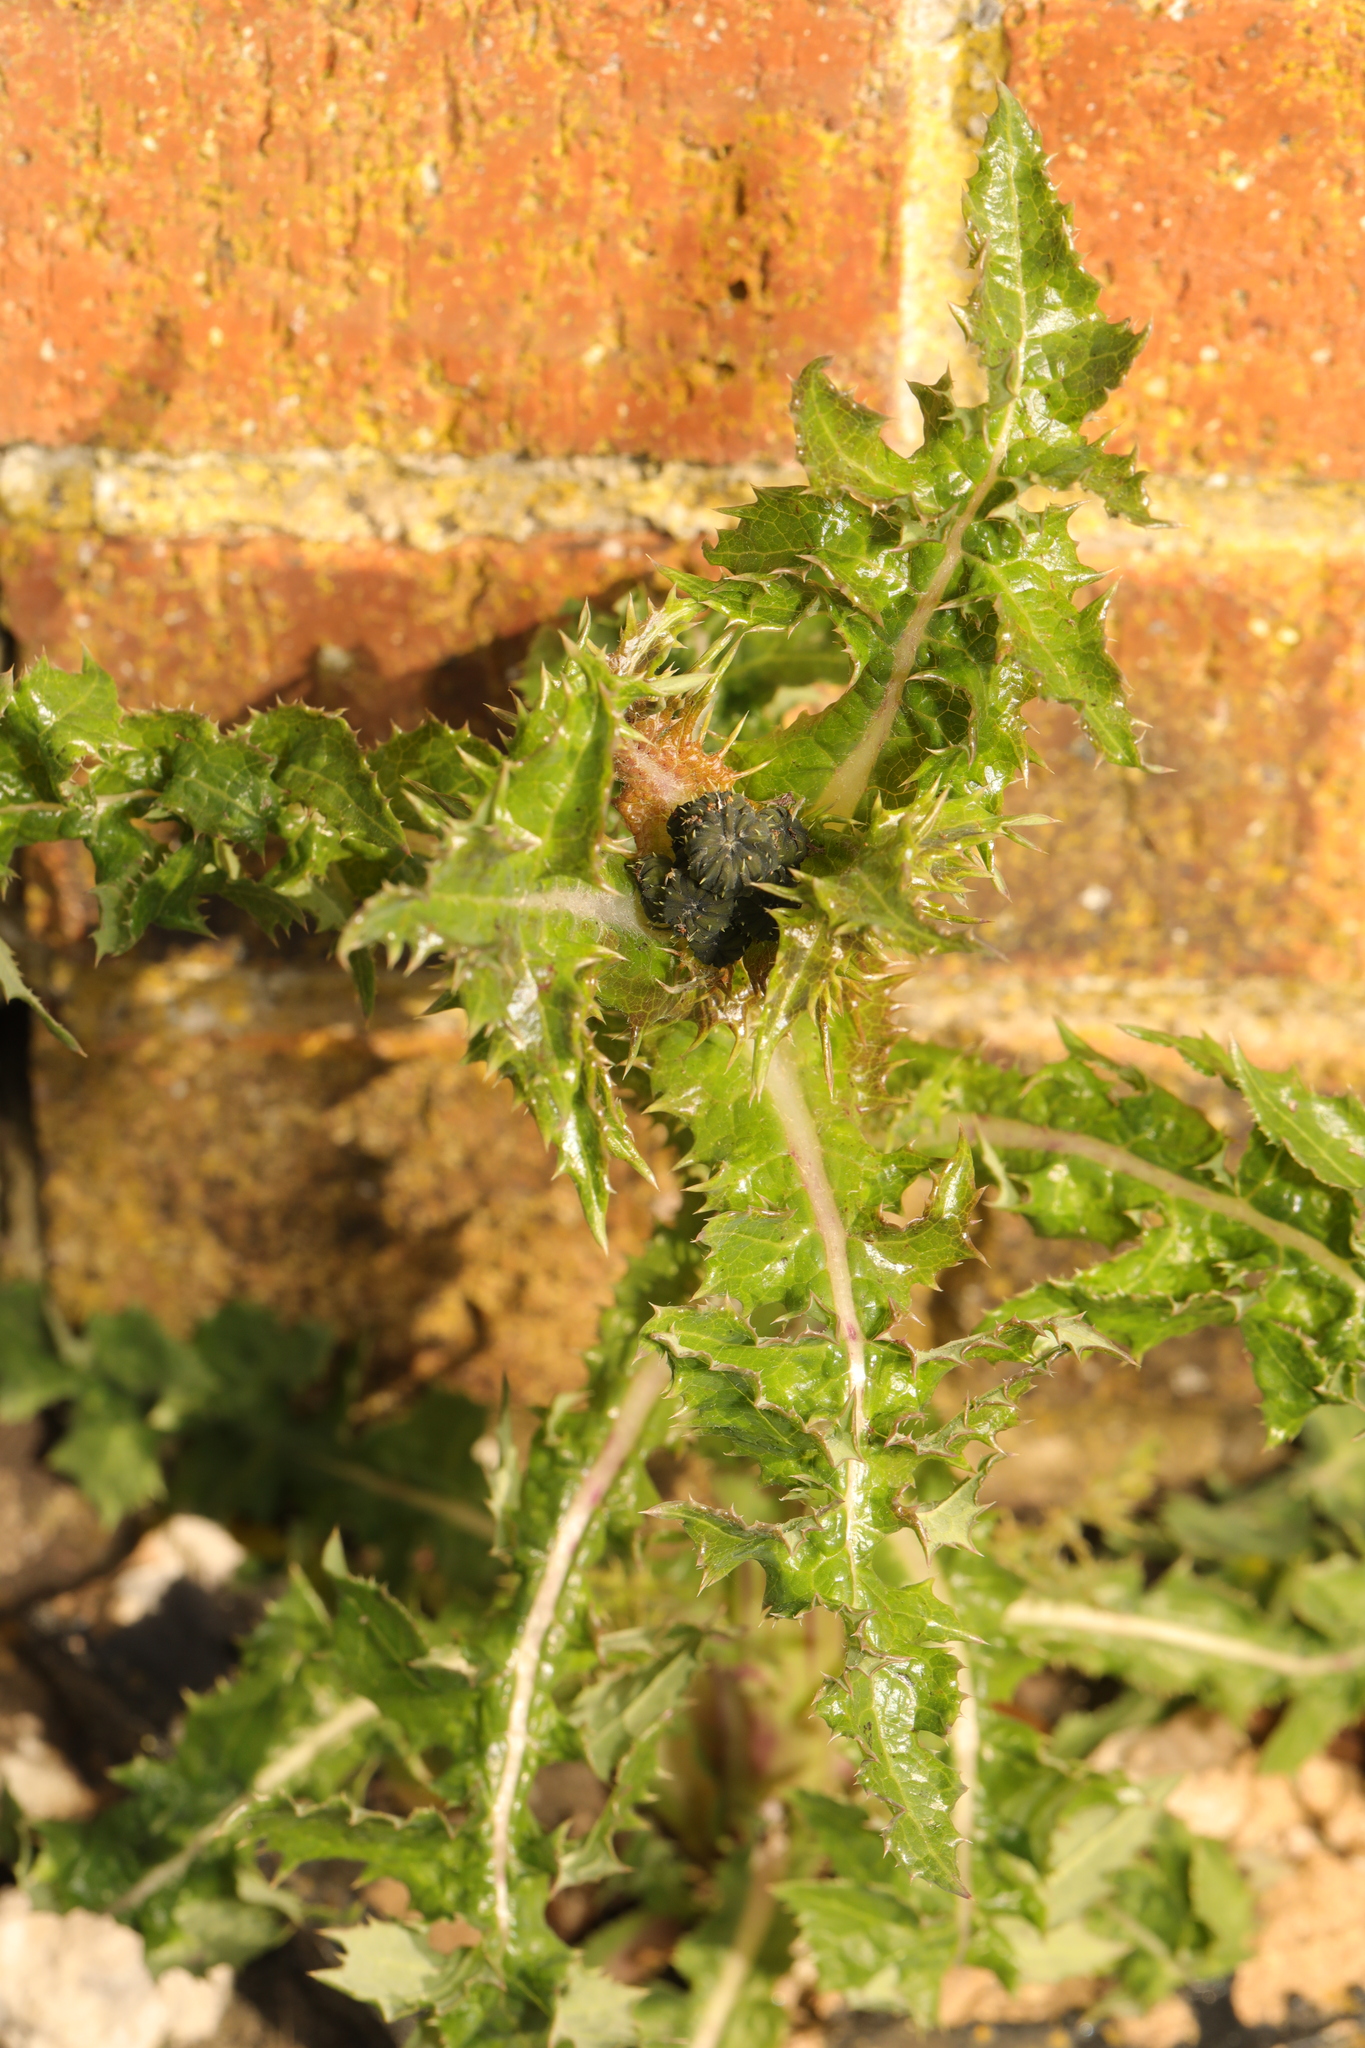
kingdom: Plantae
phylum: Tracheophyta
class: Magnoliopsida
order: Asterales
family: Asteraceae
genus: Sonchus
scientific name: Sonchus asper
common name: Prickly sow-thistle
